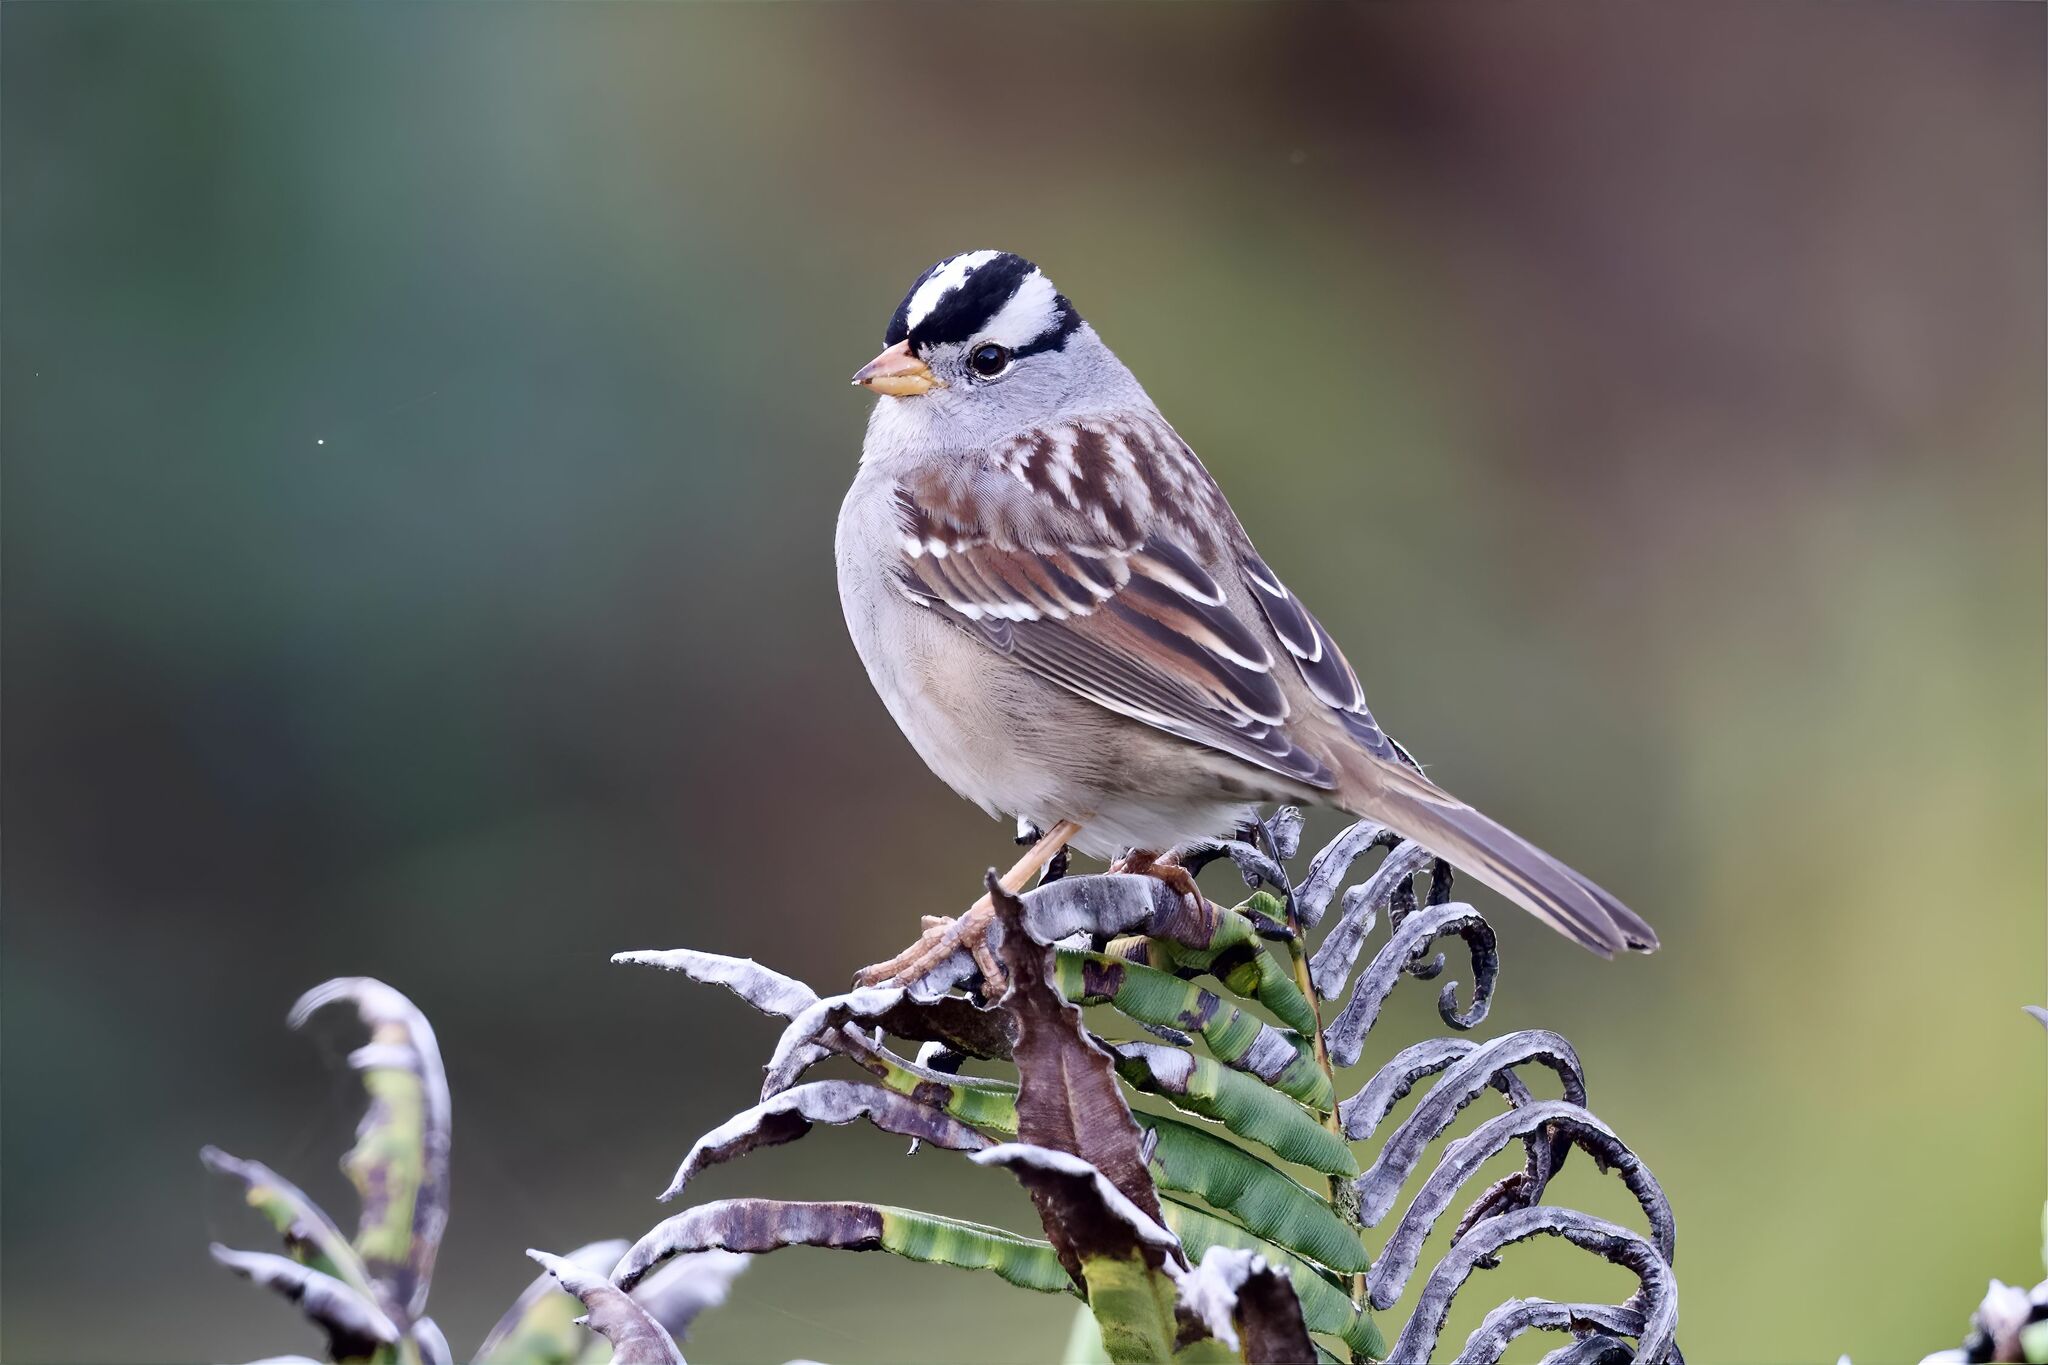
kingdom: Animalia
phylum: Chordata
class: Aves
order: Passeriformes
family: Passerellidae
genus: Zonotrichia
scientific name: Zonotrichia leucophrys
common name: White-crowned sparrow
